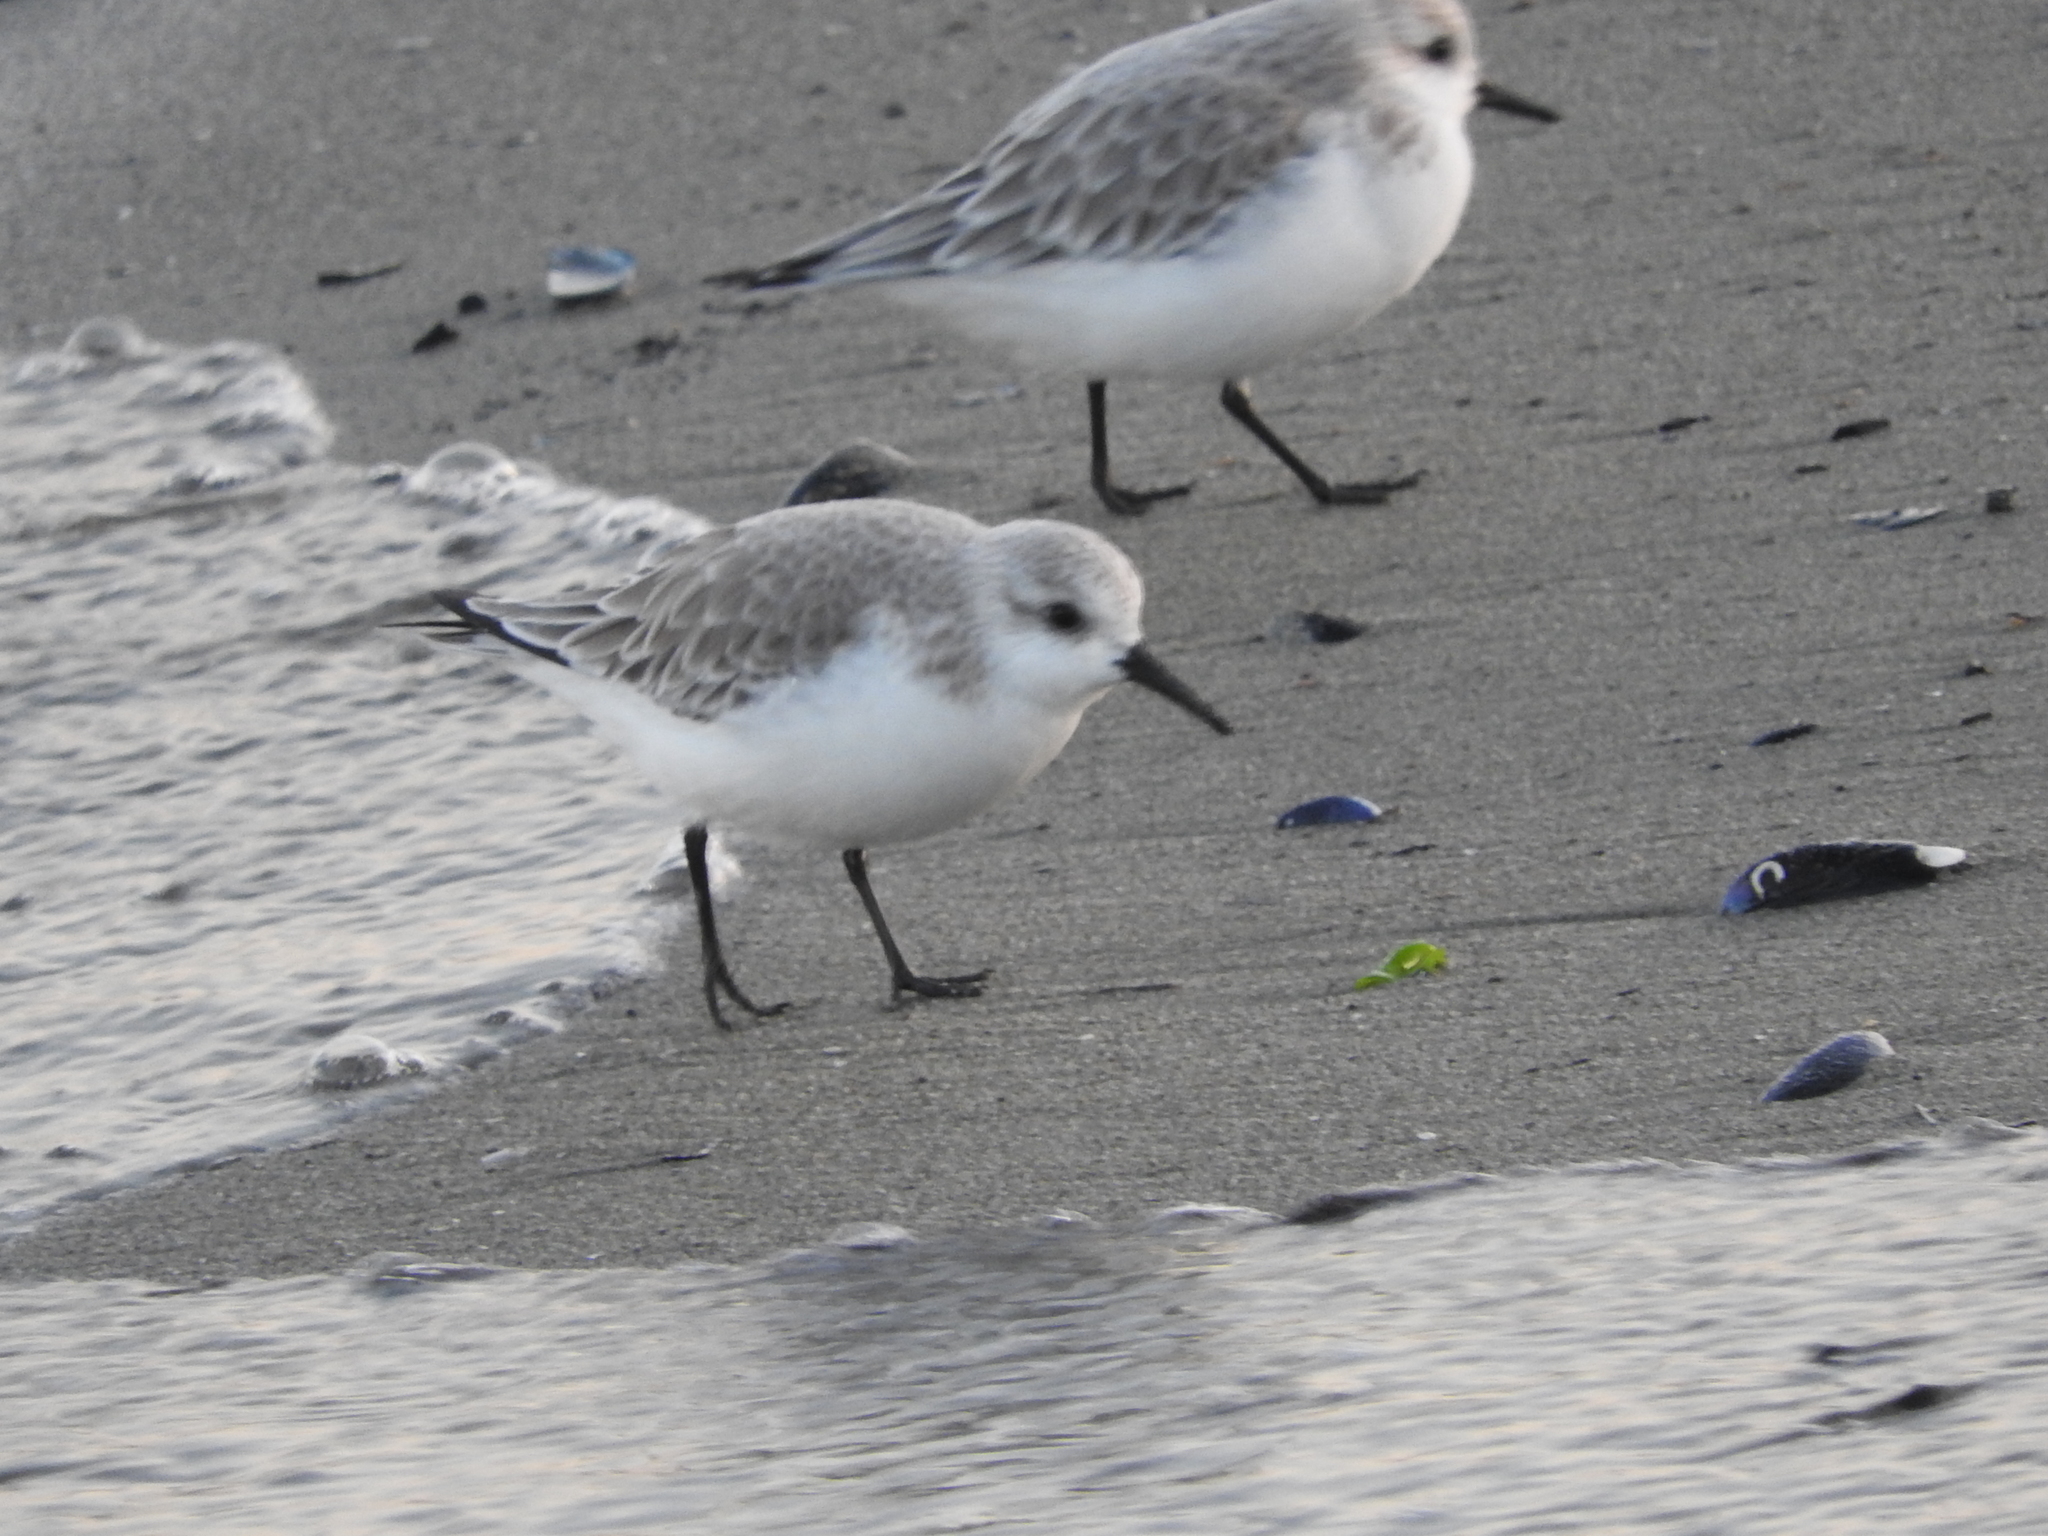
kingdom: Animalia
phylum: Chordata
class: Aves
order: Charadriiformes
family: Scolopacidae
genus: Calidris
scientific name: Calidris alba
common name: Sanderling
